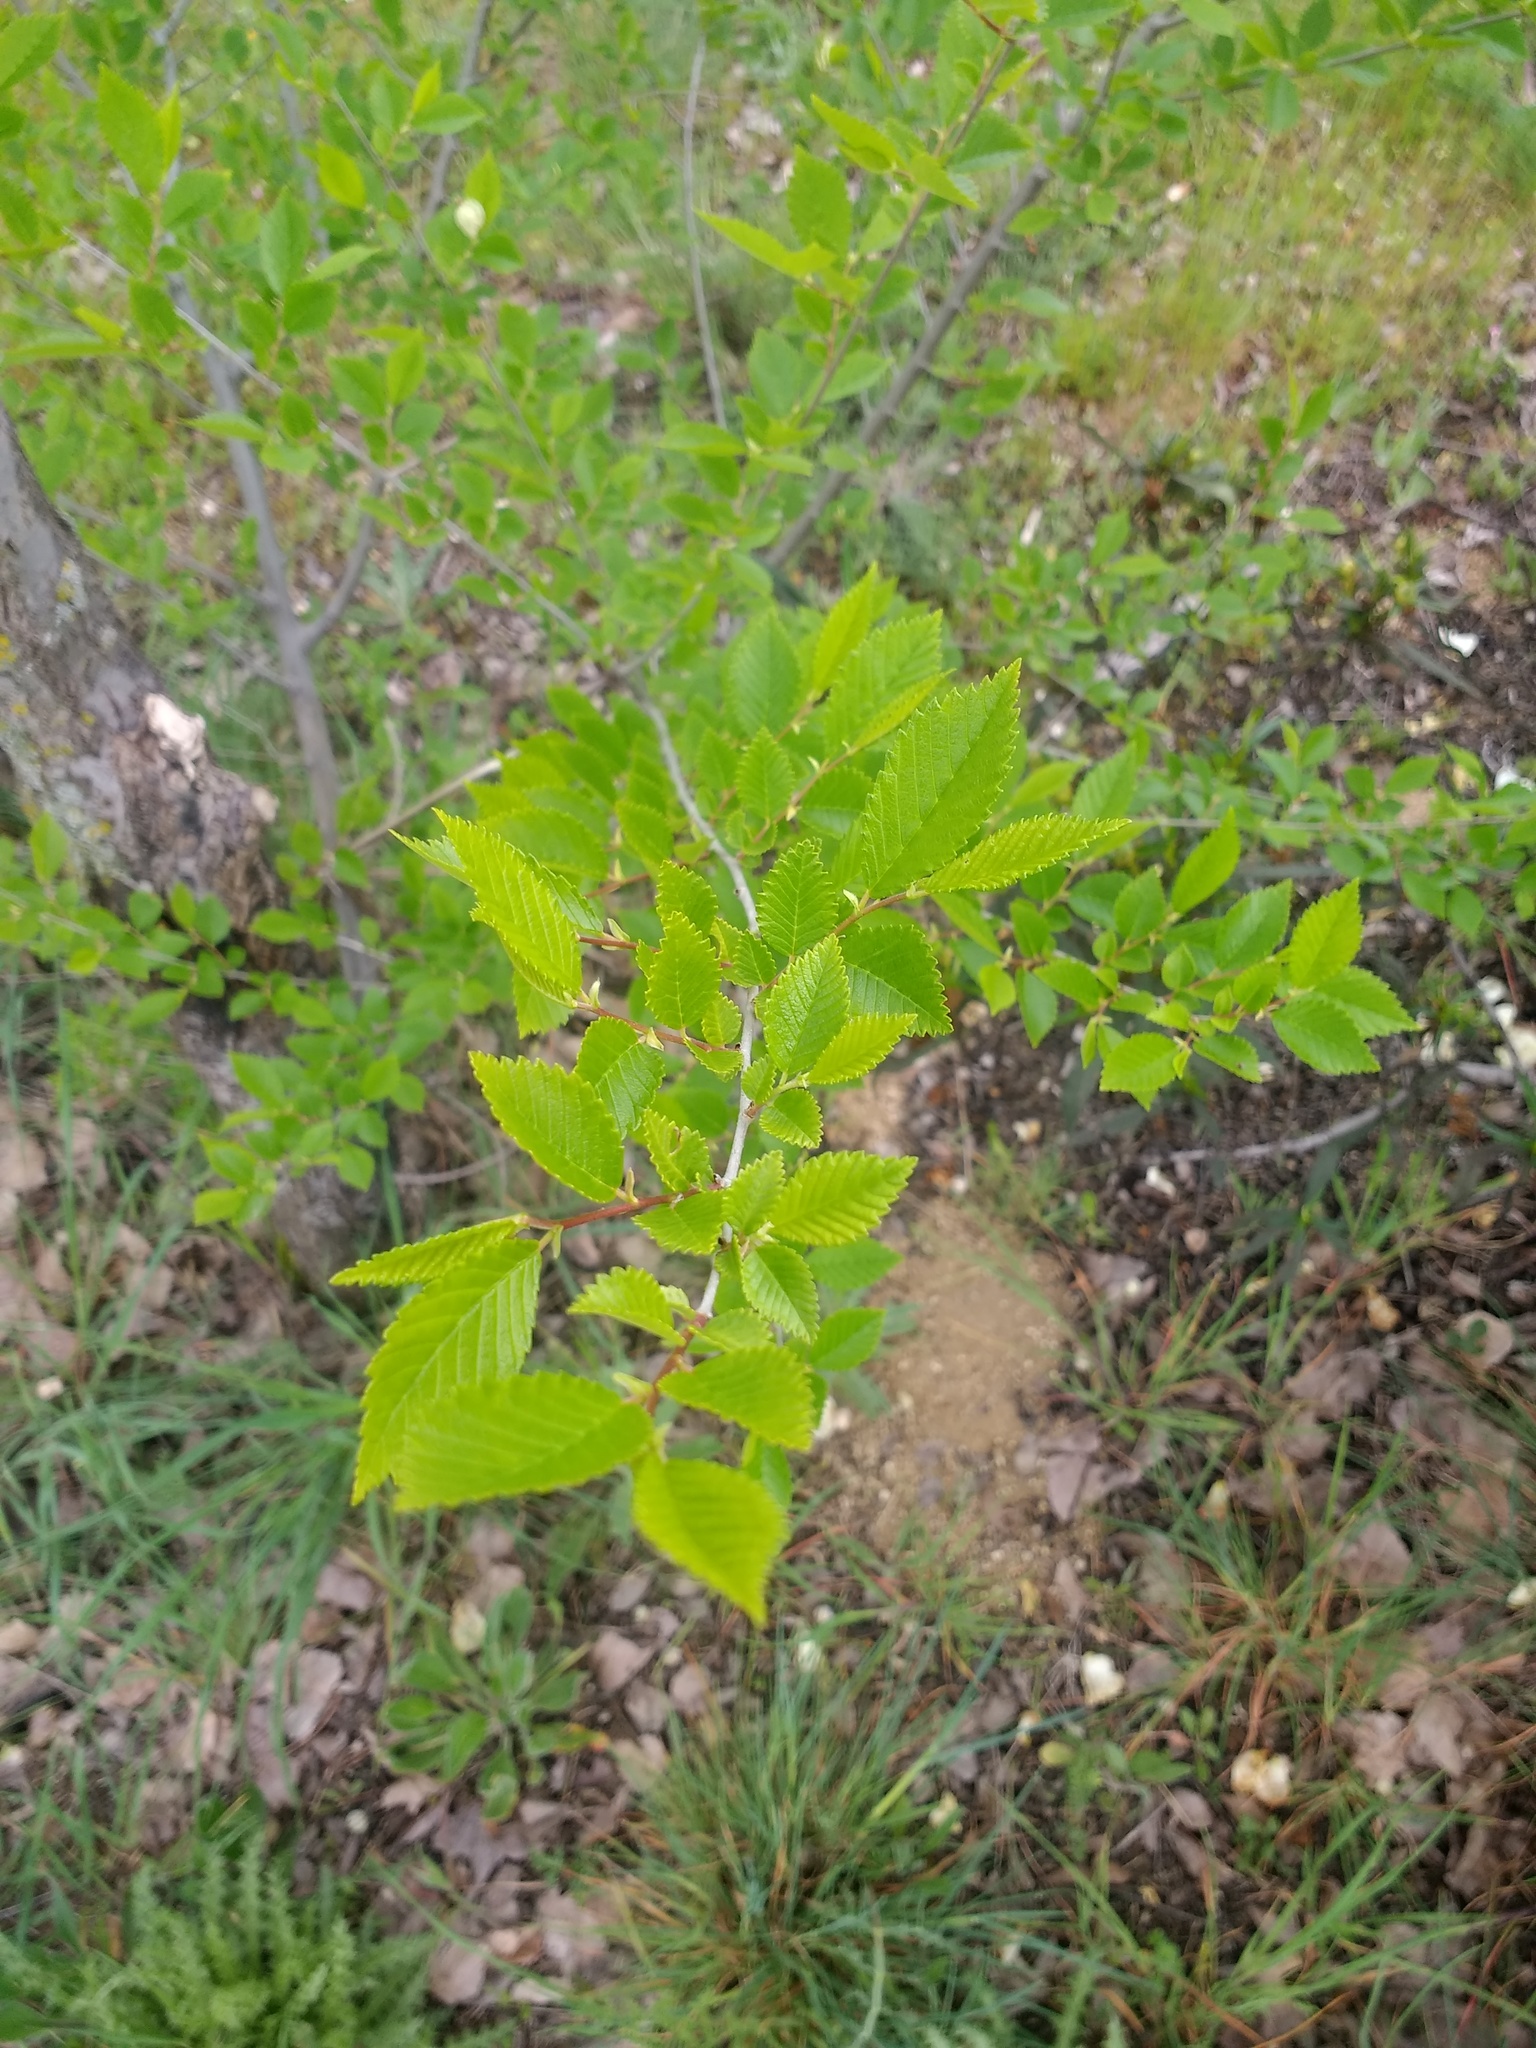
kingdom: Plantae
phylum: Tracheophyta
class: Magnoliopsida
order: Rosales
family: Ulmaceae
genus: Ulmus
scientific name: Ulmus pumila
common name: Siberian elm
